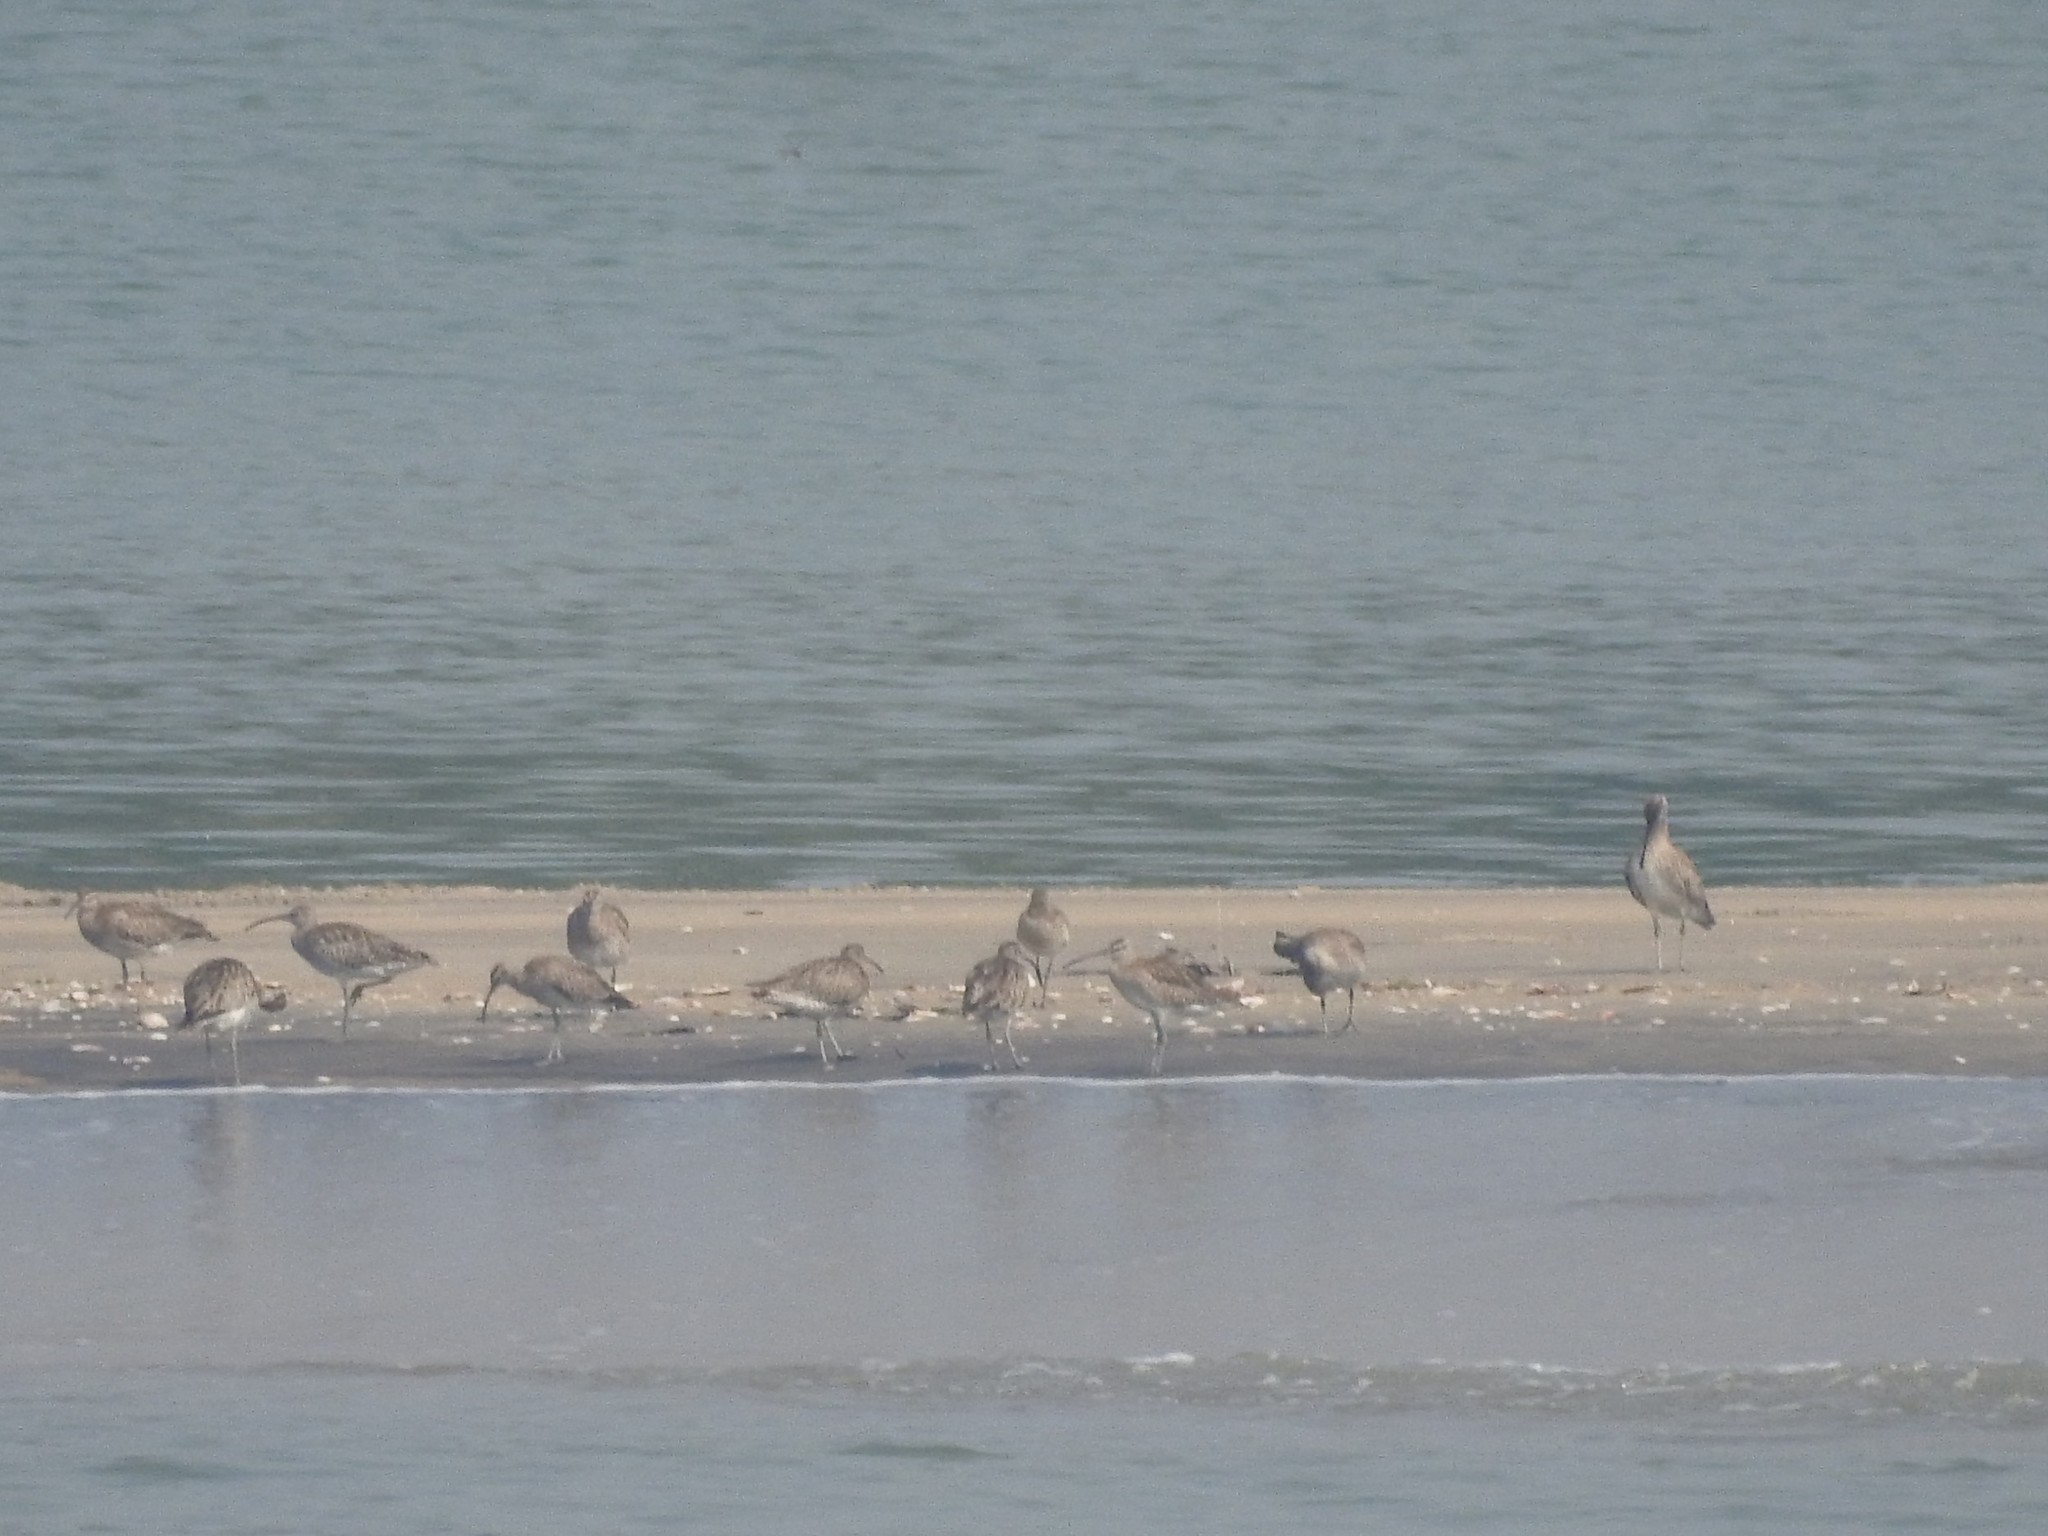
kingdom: Animalia
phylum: Chordata
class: Aves
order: Charadriiformes
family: Scolopacidae
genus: Numenius
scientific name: Numenius phaeopus
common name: Whimbrel
